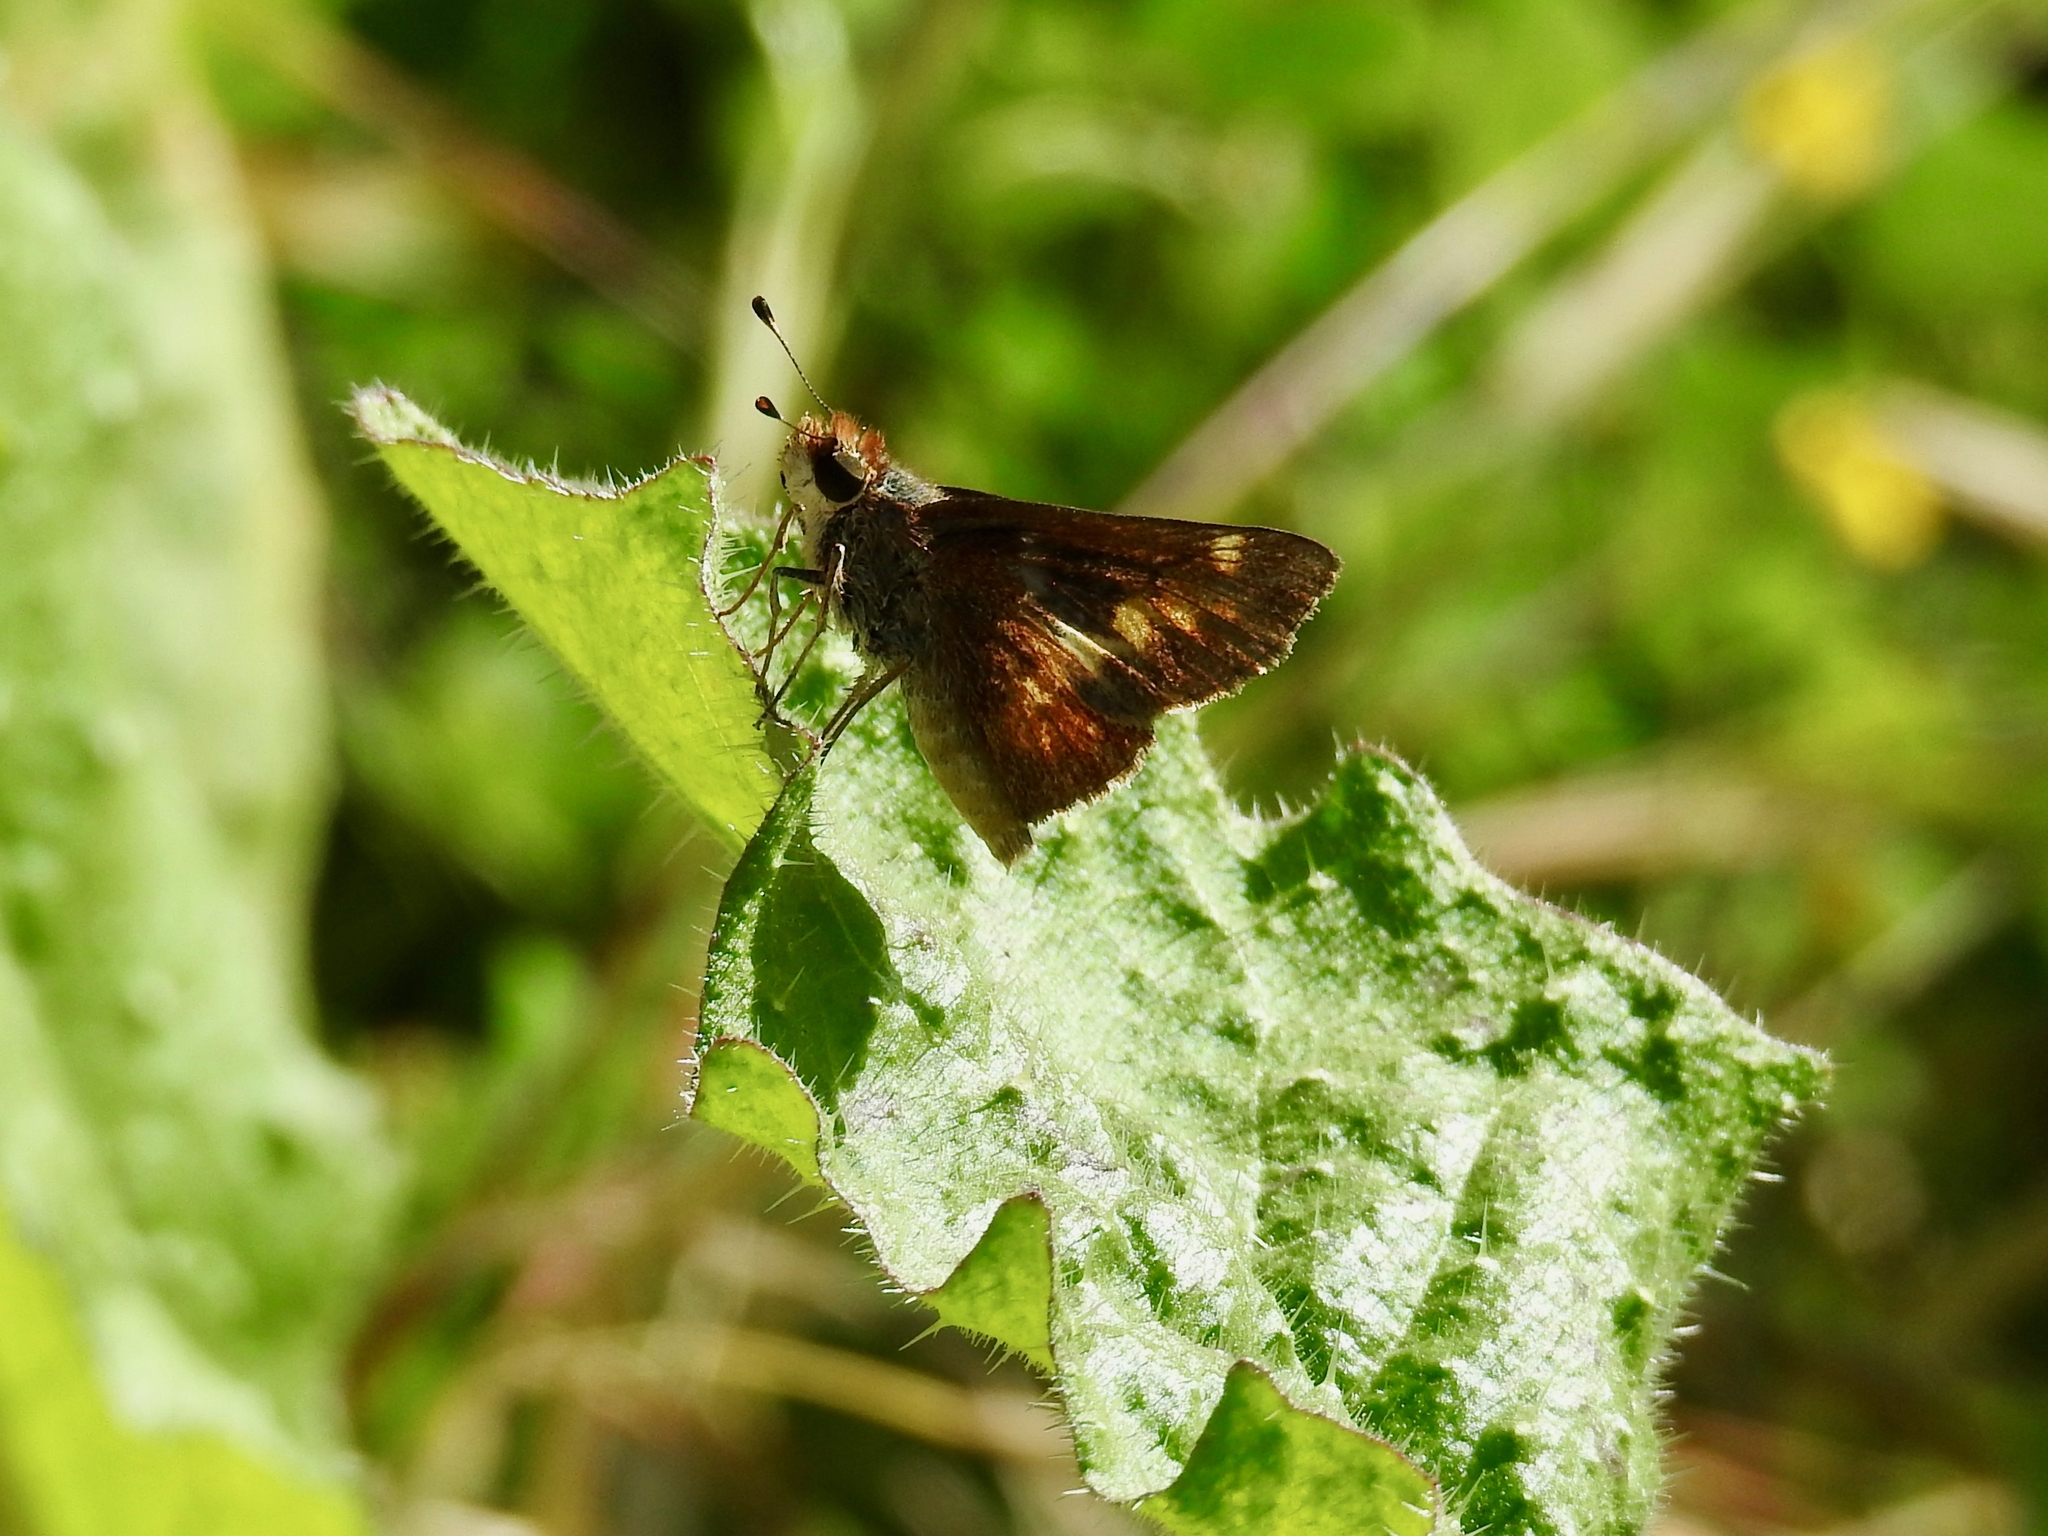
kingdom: Animalia
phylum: Arthropoda
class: Insecta
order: Lepidoptera
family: Hesperiidae
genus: Lon
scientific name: Lon melane
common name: Umber skipper
